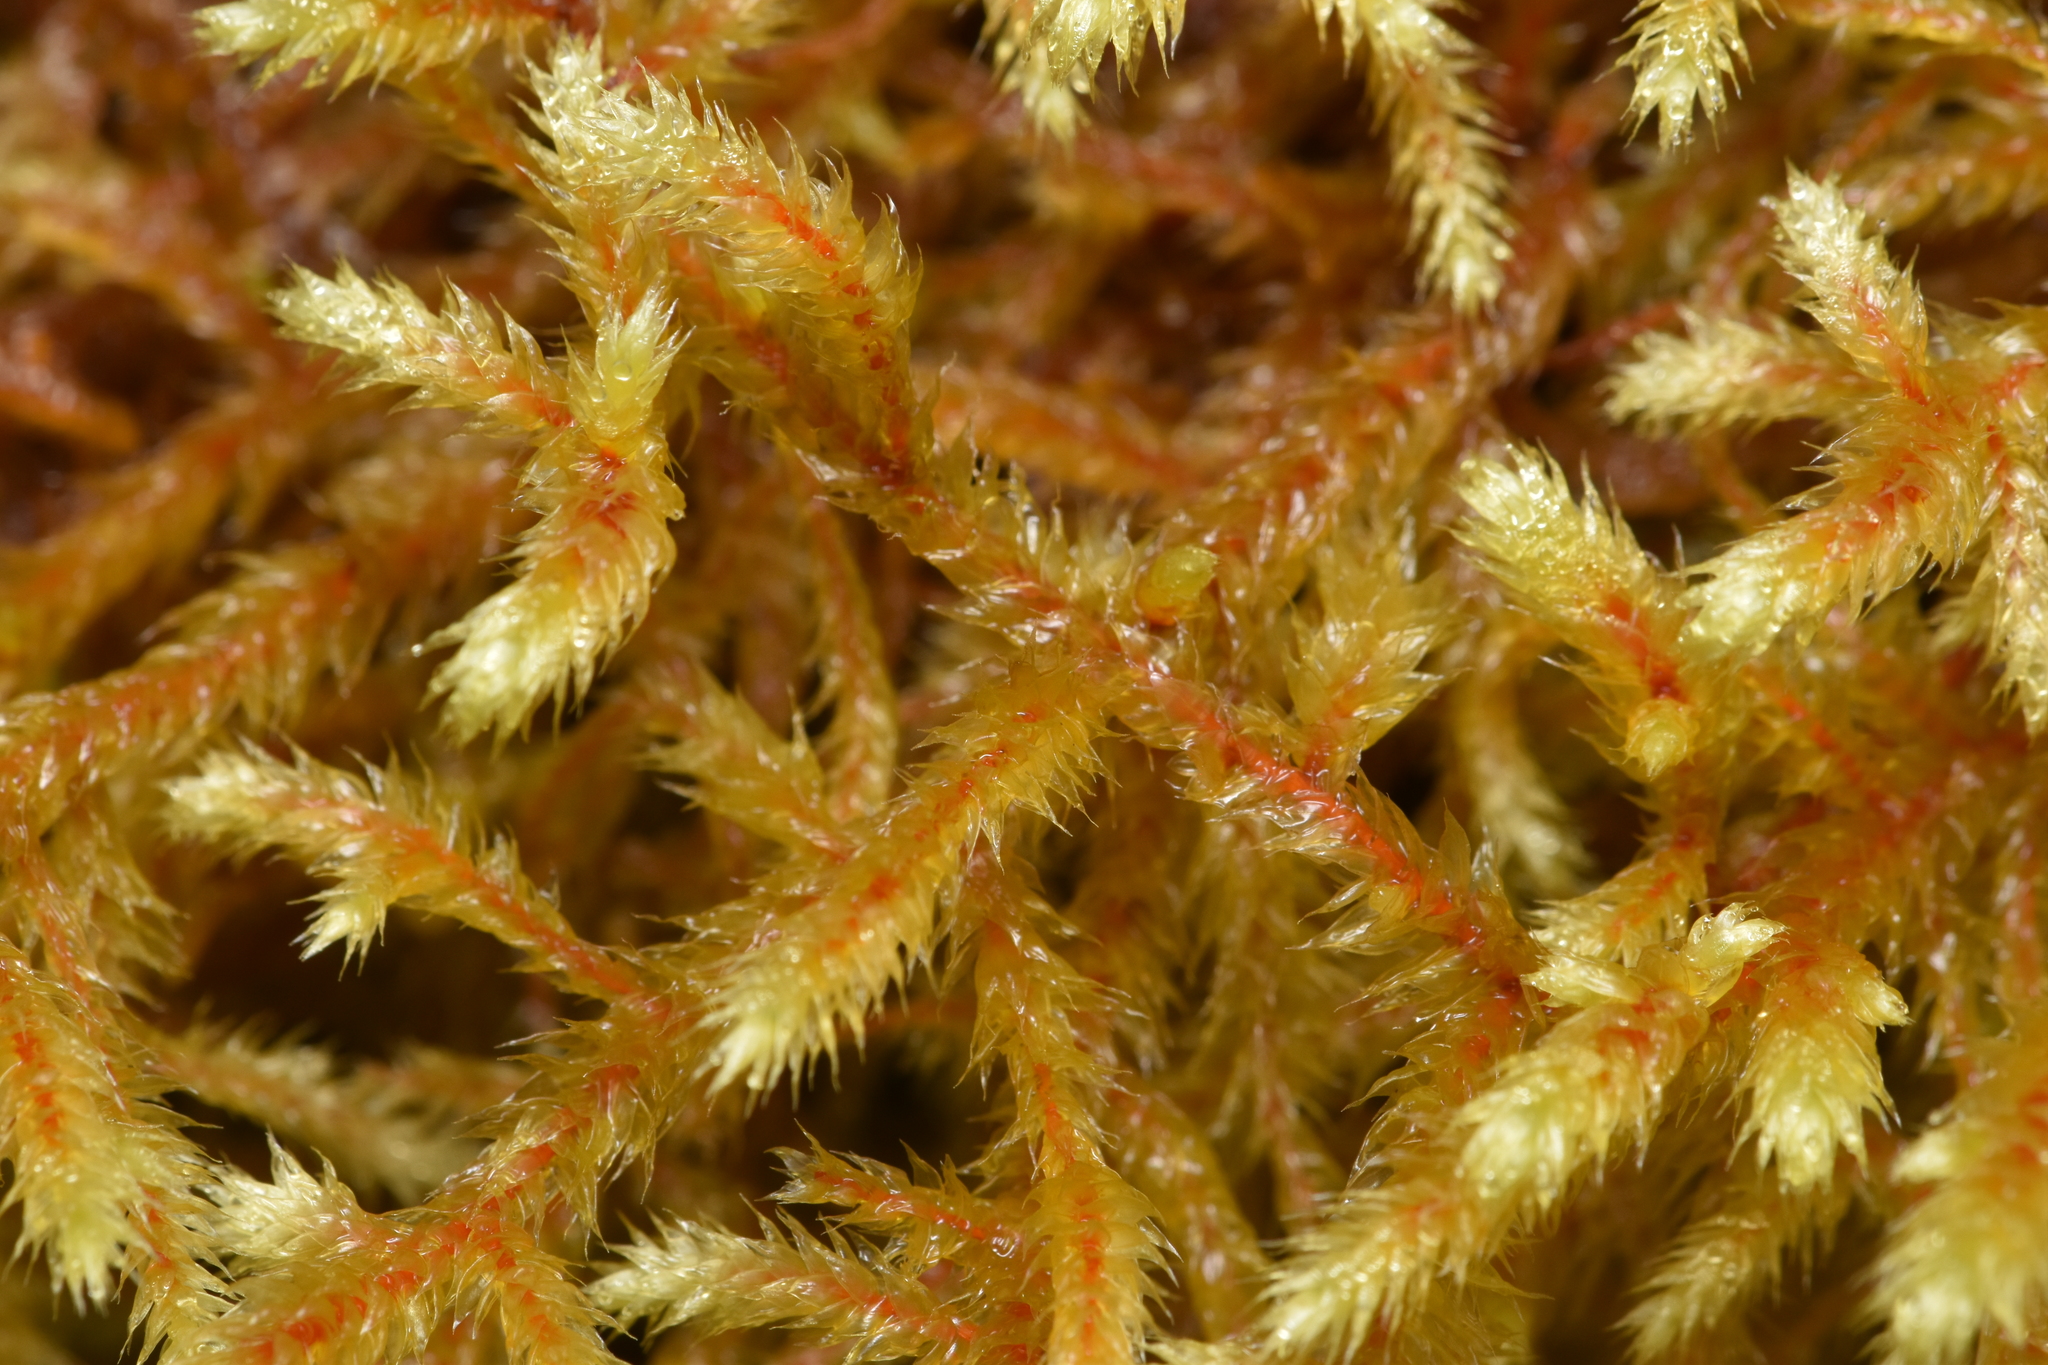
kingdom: Plantae
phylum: Bryophyta
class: Bryopsida
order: Hypnales
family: Antitrichiaceae
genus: Antitrichia
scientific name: Antitrichia curtipendula
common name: Pendulous wing-moss
